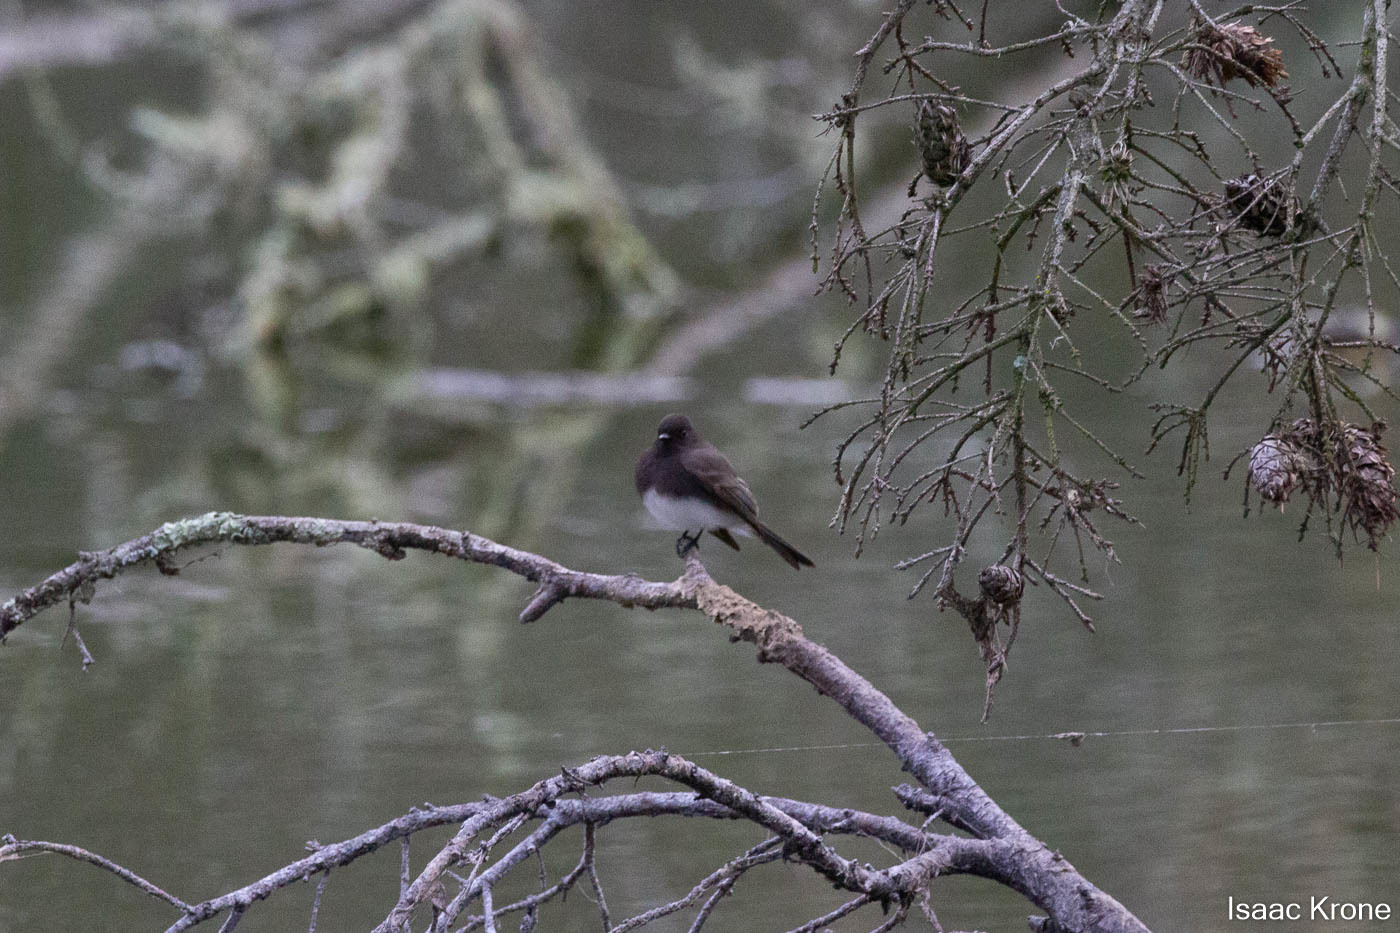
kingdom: Animalia
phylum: Chordata
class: Aves
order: Passeriformes
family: Tyrannidae
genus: Sayornis
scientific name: Sayornis nigricans
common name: Black phoebe
